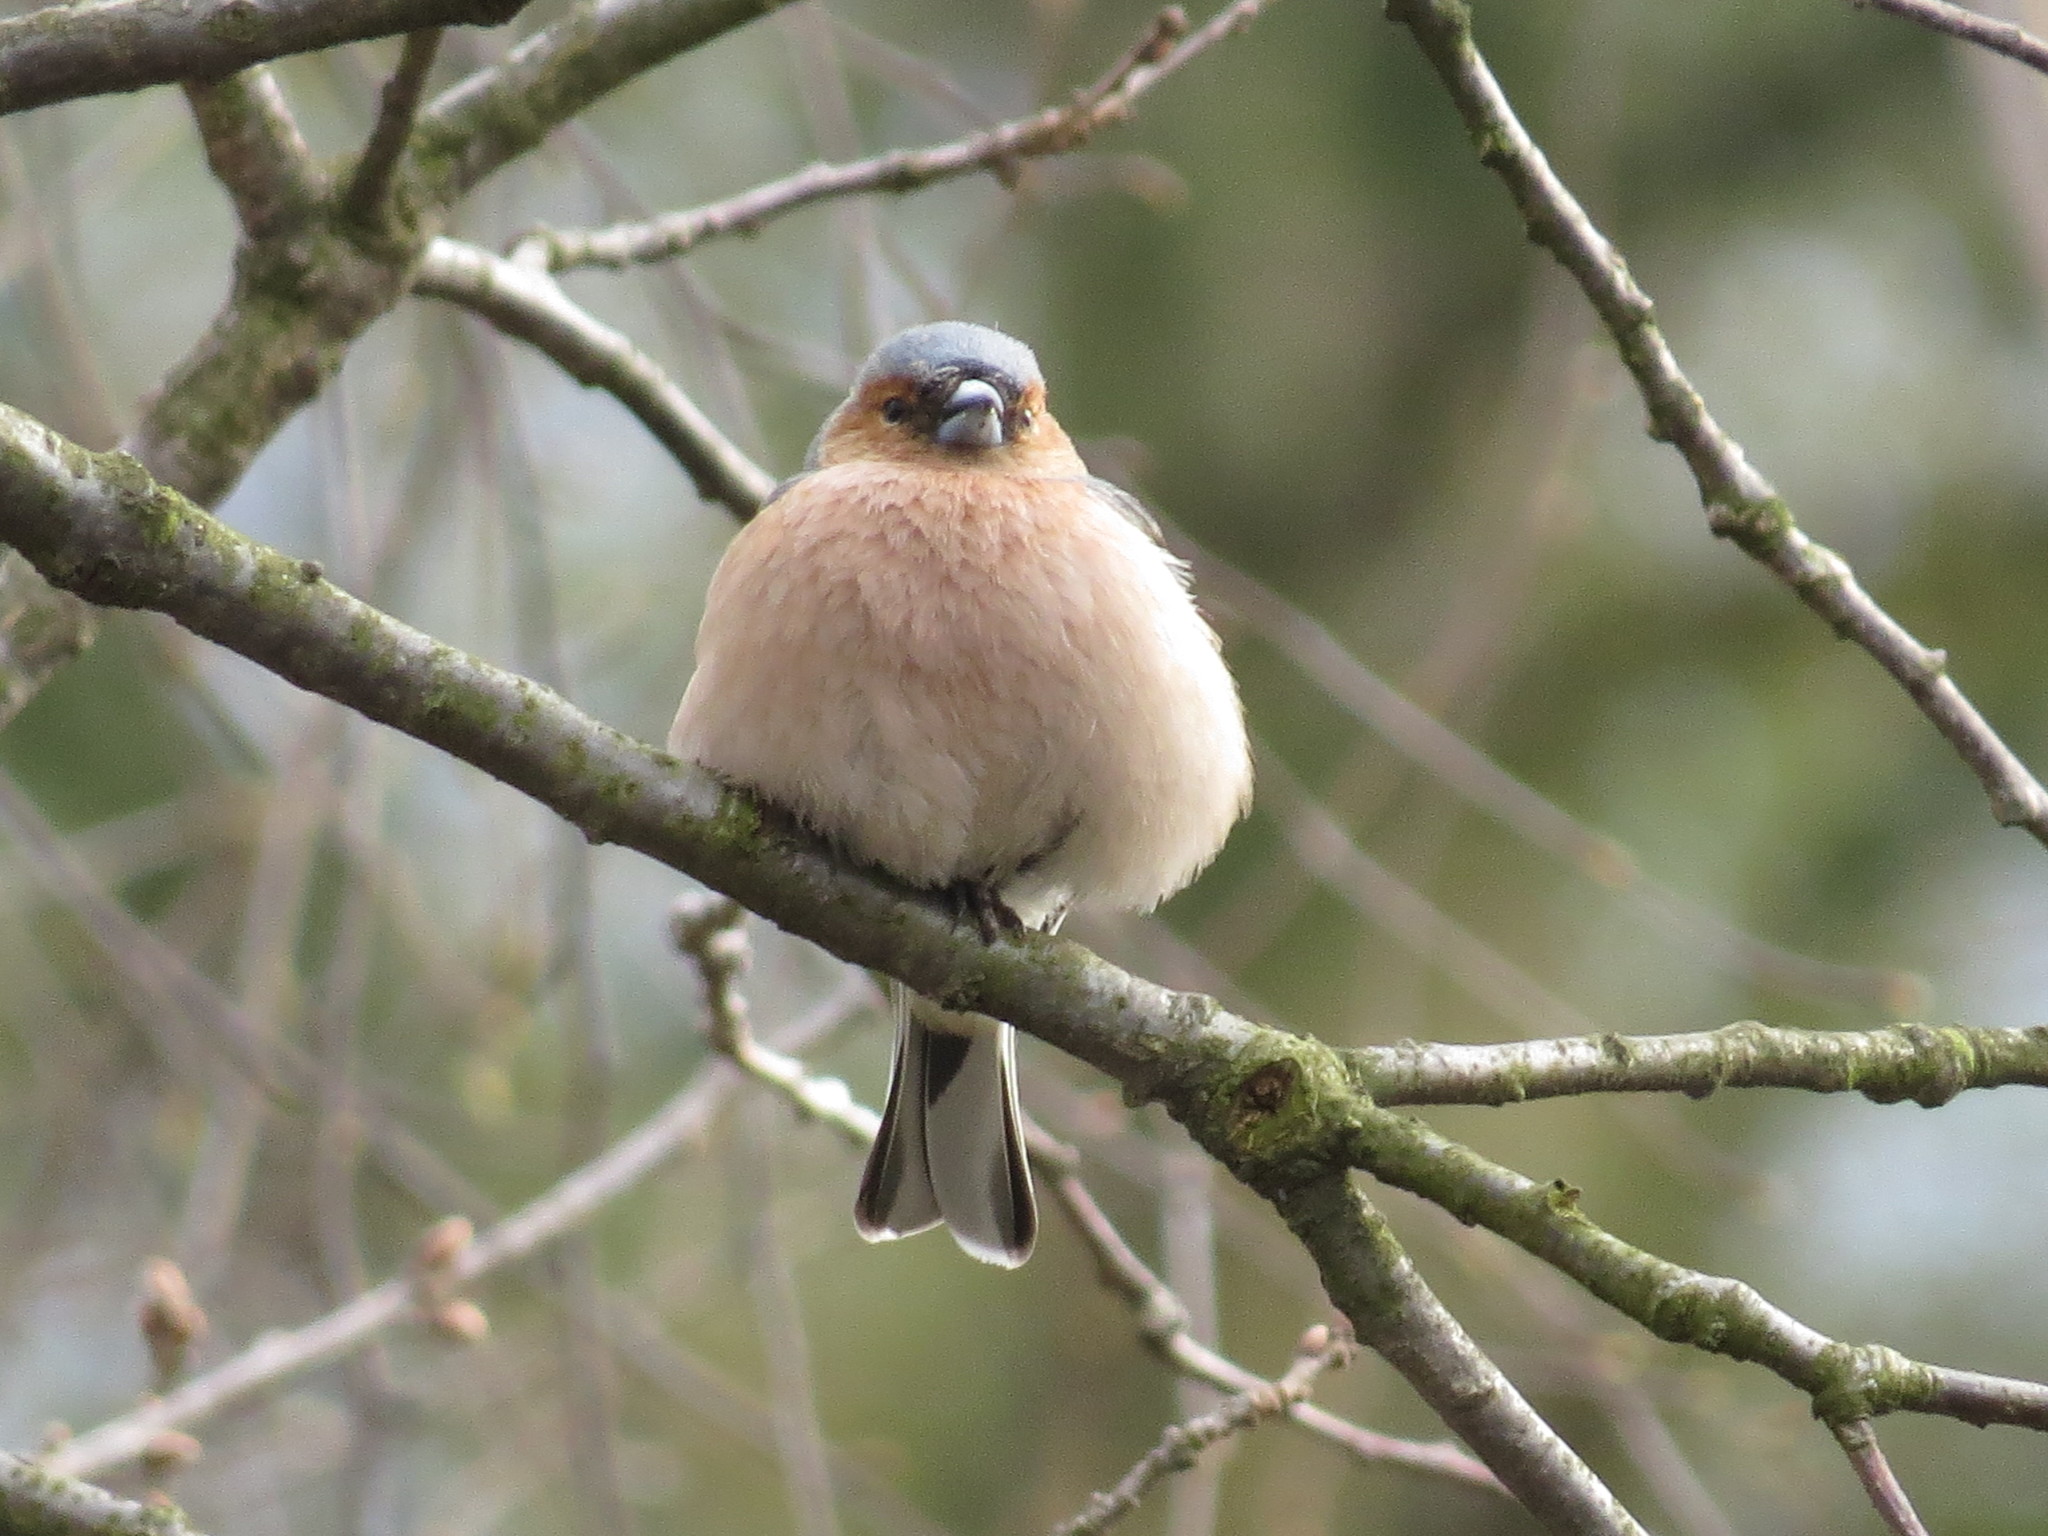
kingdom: Animalia
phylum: Chordata
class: Aves
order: Passeriformes
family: Fringillidae
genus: Fringilla
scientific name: Fringilla coelebs
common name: Common chaffinch
